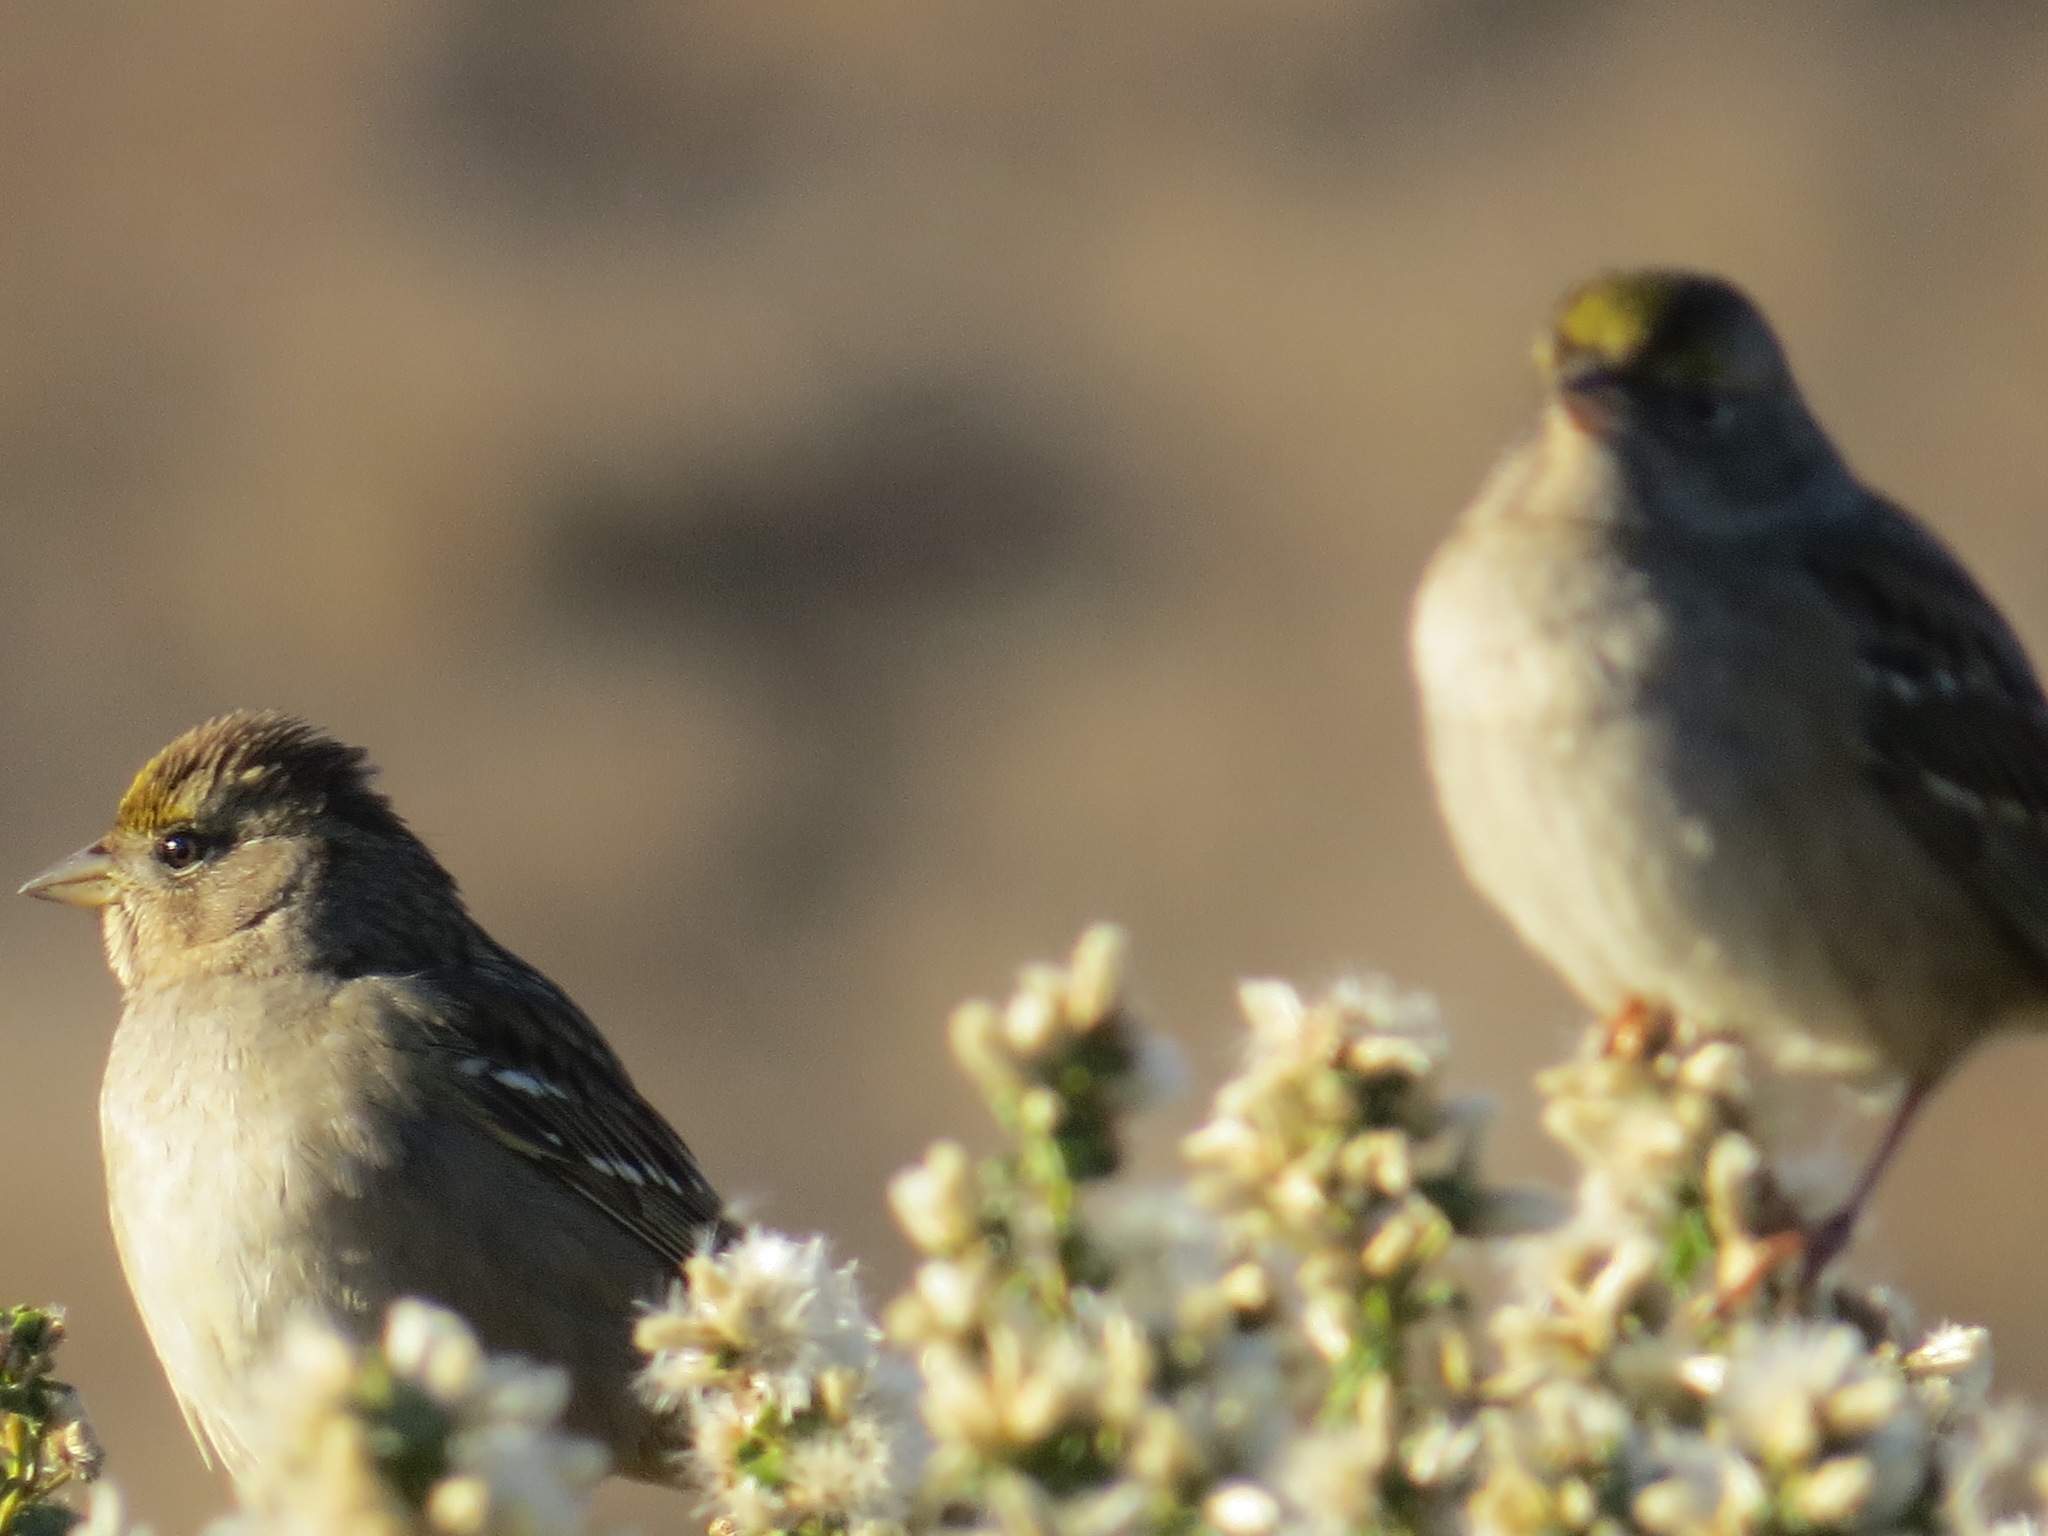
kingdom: Animalia
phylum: Chordata
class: Aves
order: Passeriformes
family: Passerellidae
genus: Zonotrichia
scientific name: Zonotrichia atricapilla
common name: Golden-crowned sparrow
